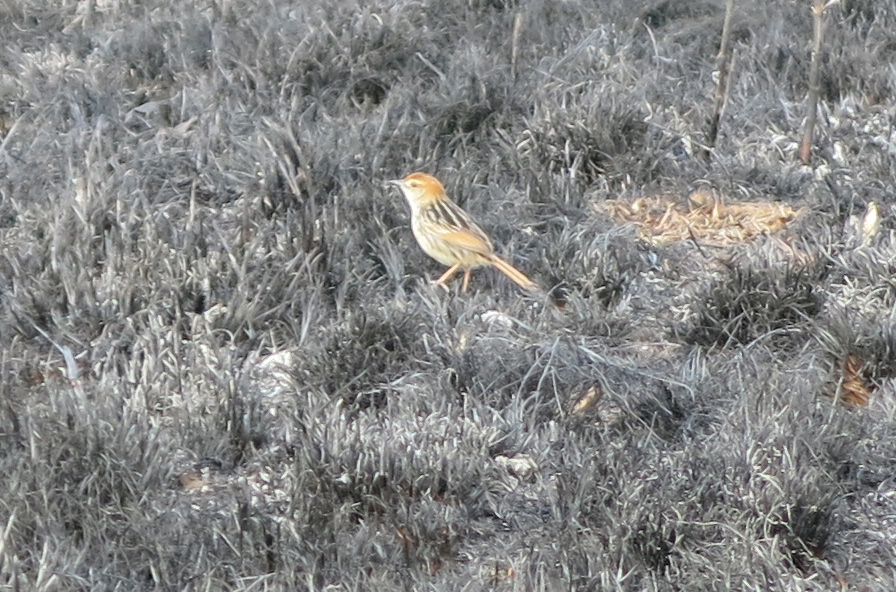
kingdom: Animalia
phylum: Chordata
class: Aves
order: Passeriformes
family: Cisticolidae
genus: Cisticola
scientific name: Cisticola tinniens
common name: Levaillant's cisticola
